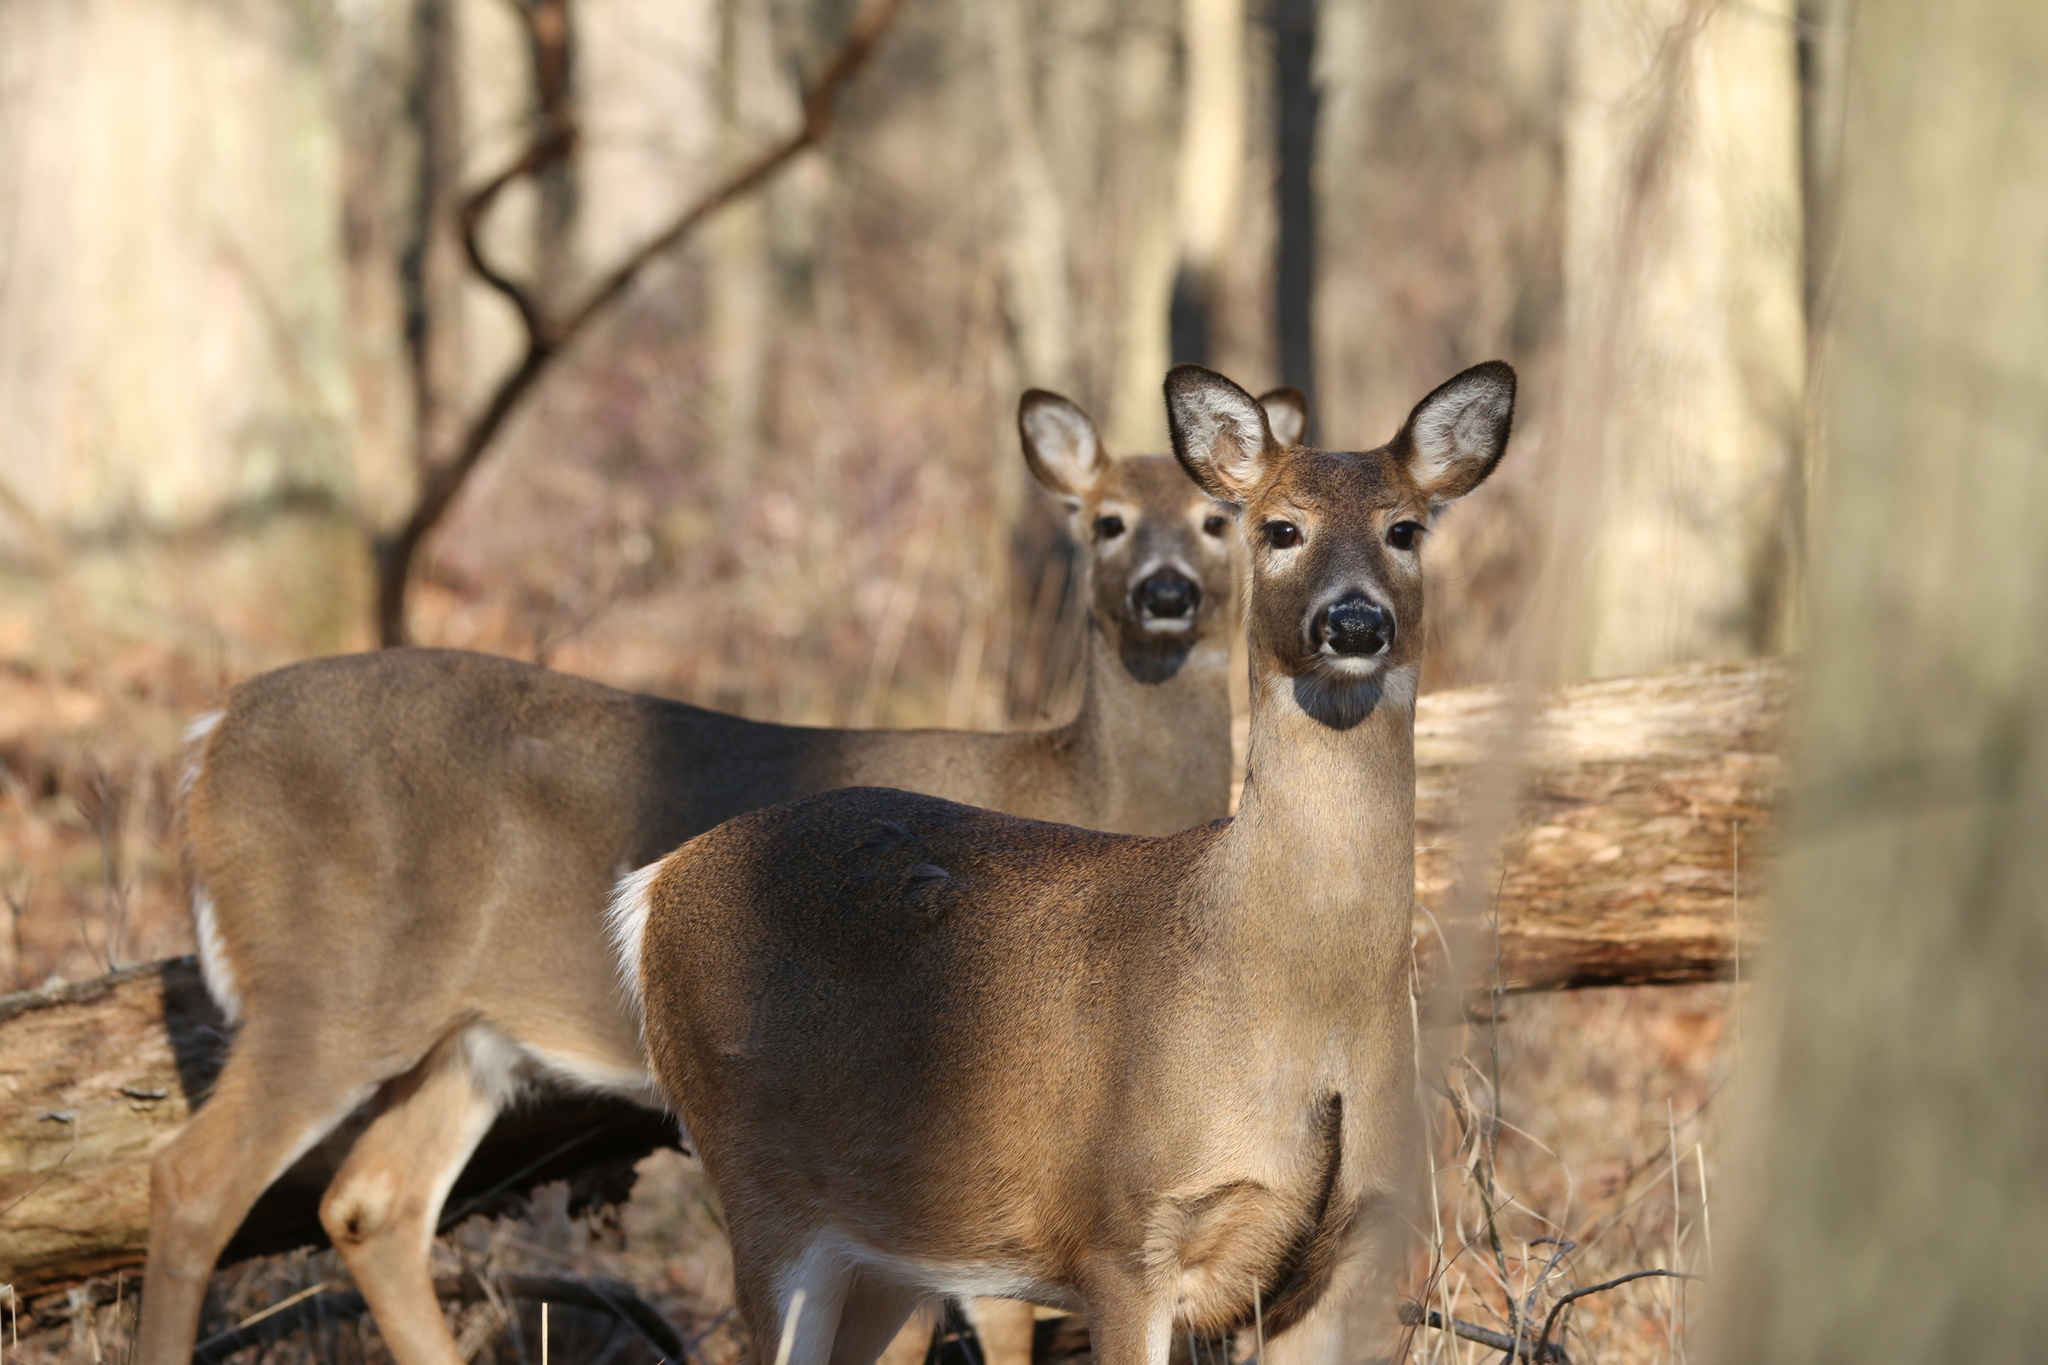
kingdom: Animalia
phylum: Chordata
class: Mammalia
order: Artiodactyla
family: Cervidae
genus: Odocoileus
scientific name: Odocoileus virginianus
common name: White-tailed deer
